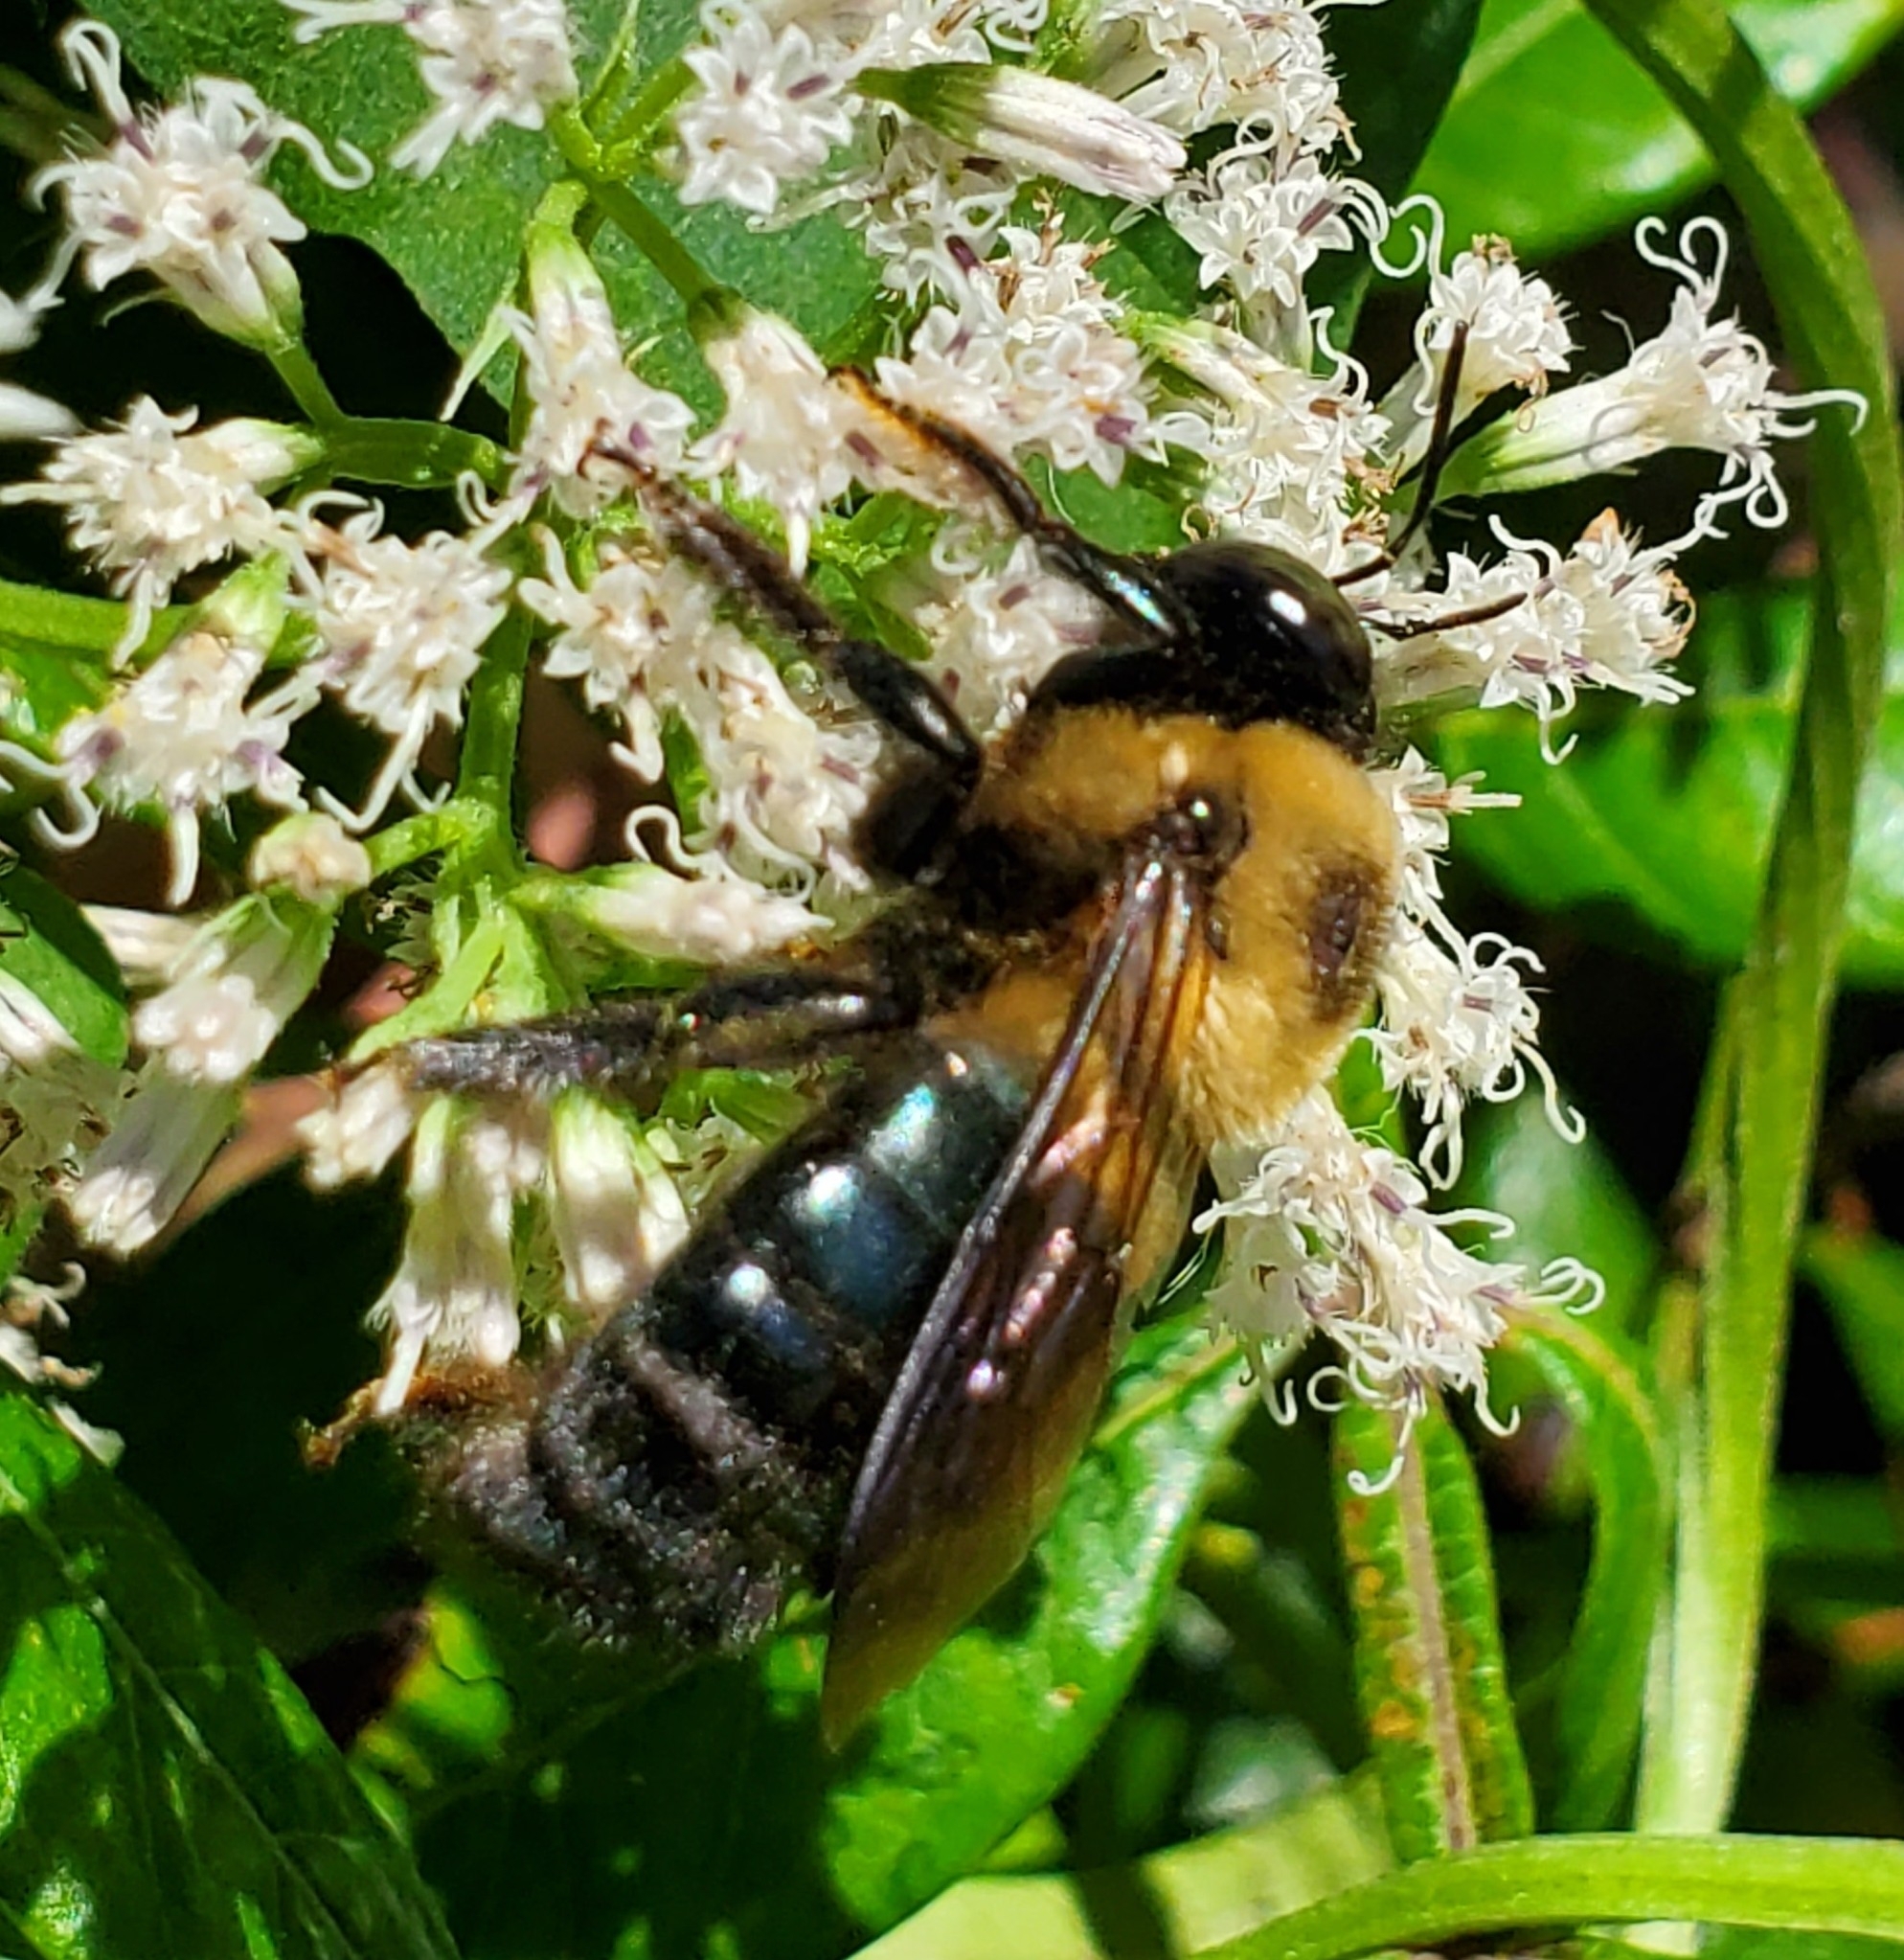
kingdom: Animalia
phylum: Arthropoda
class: Insecta
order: Hymenoptera
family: Apidae
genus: Xylocopa
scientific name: Xylocopa virginica
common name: Carpenter bee
